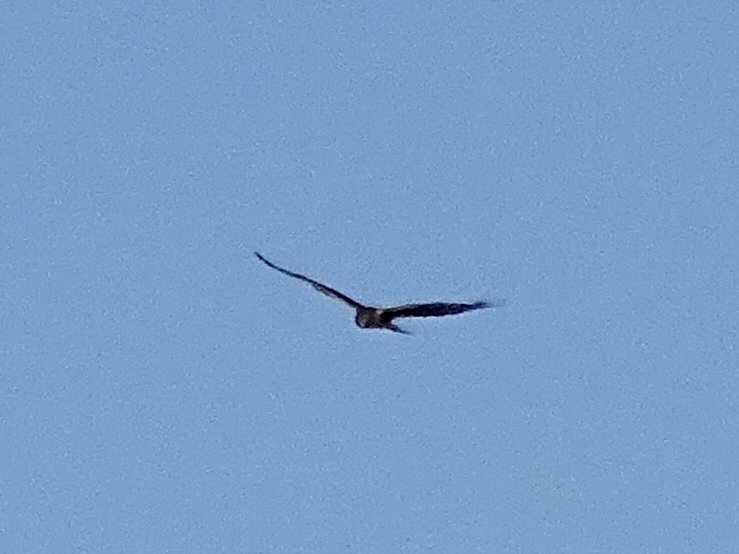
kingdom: Animalia
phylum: Chordata
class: Aves
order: Accipitriformes
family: Accipitridae
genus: Circus
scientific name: Circus cyaneus
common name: Hen harrier
